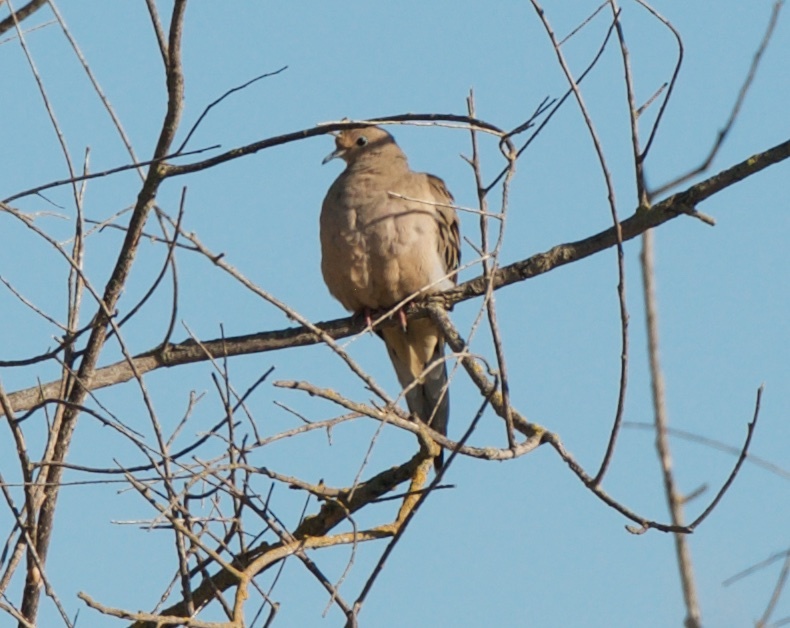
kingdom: Animalia
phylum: Chordata
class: Aves
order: Columbiformes
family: Columbidae
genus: Zenaida
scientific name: Zenaida macroura
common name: Mourning dove
